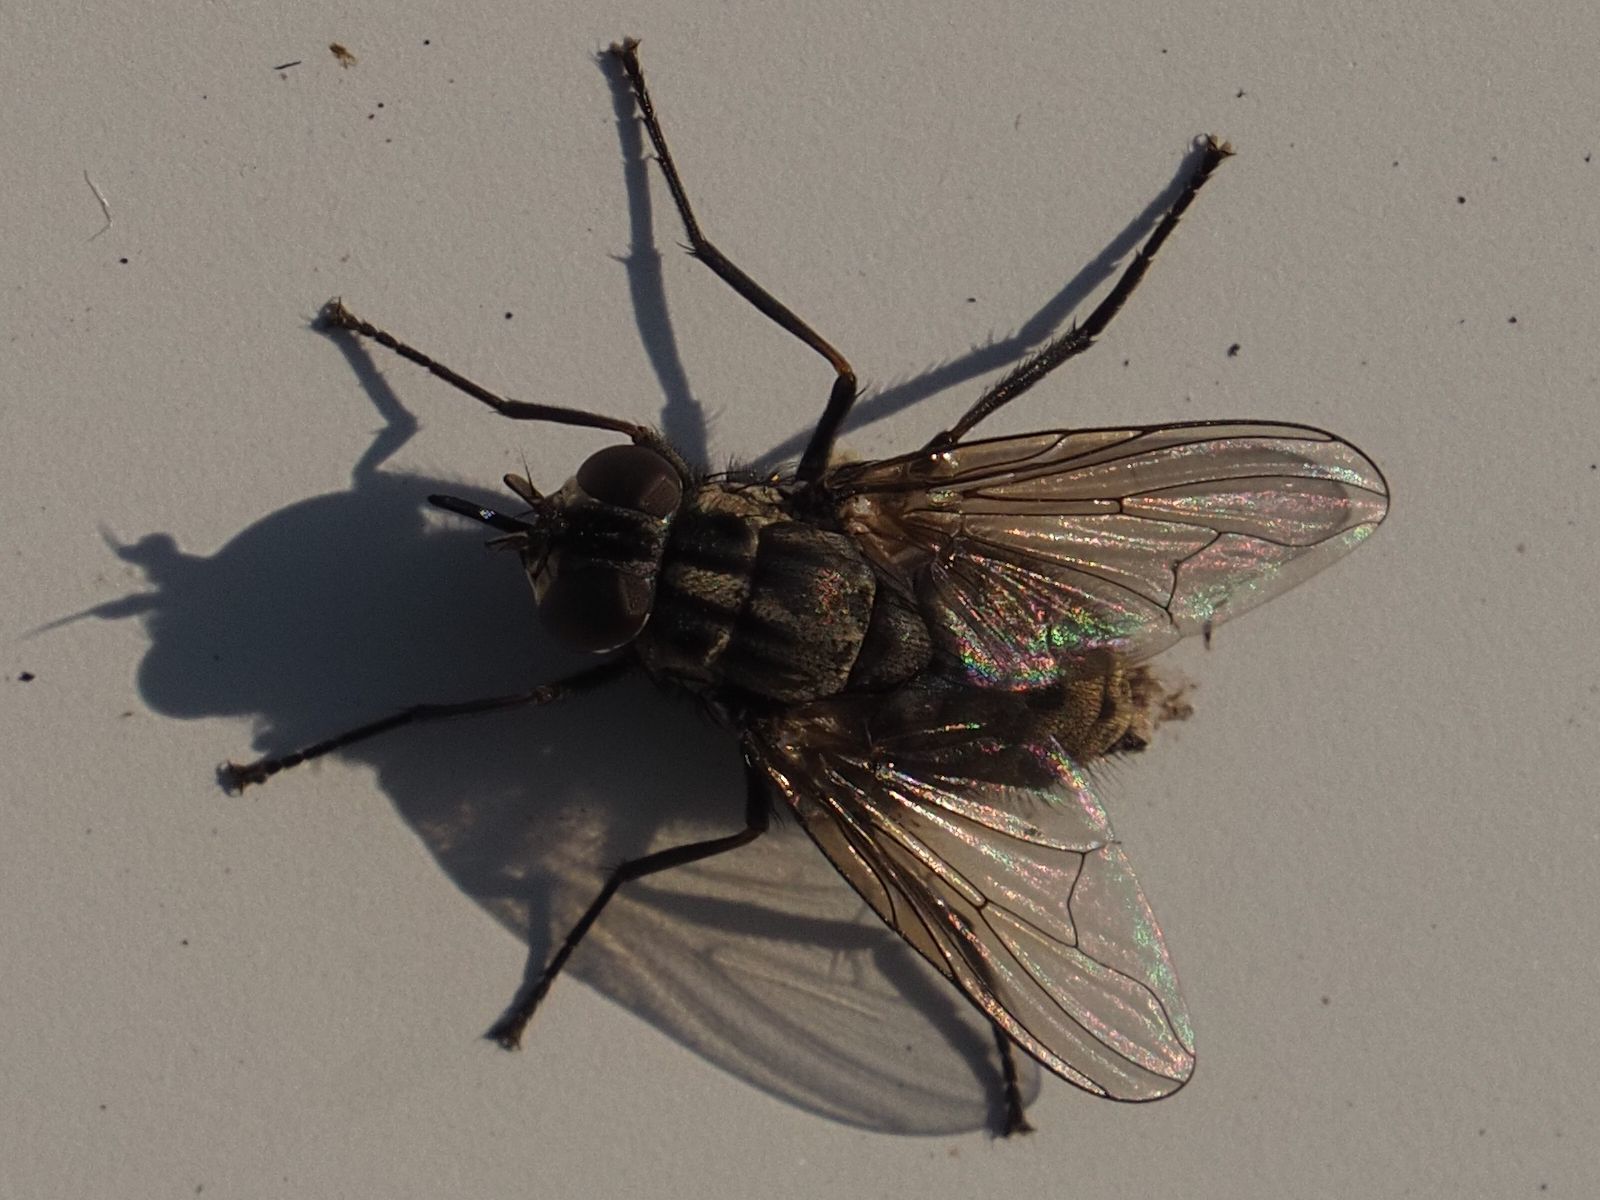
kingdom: Animalia
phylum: Arthropoda
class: Insecta
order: Diptera
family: Muscidae
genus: Stomoxys
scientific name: Stomoxys calcitrans
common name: Stable fly
